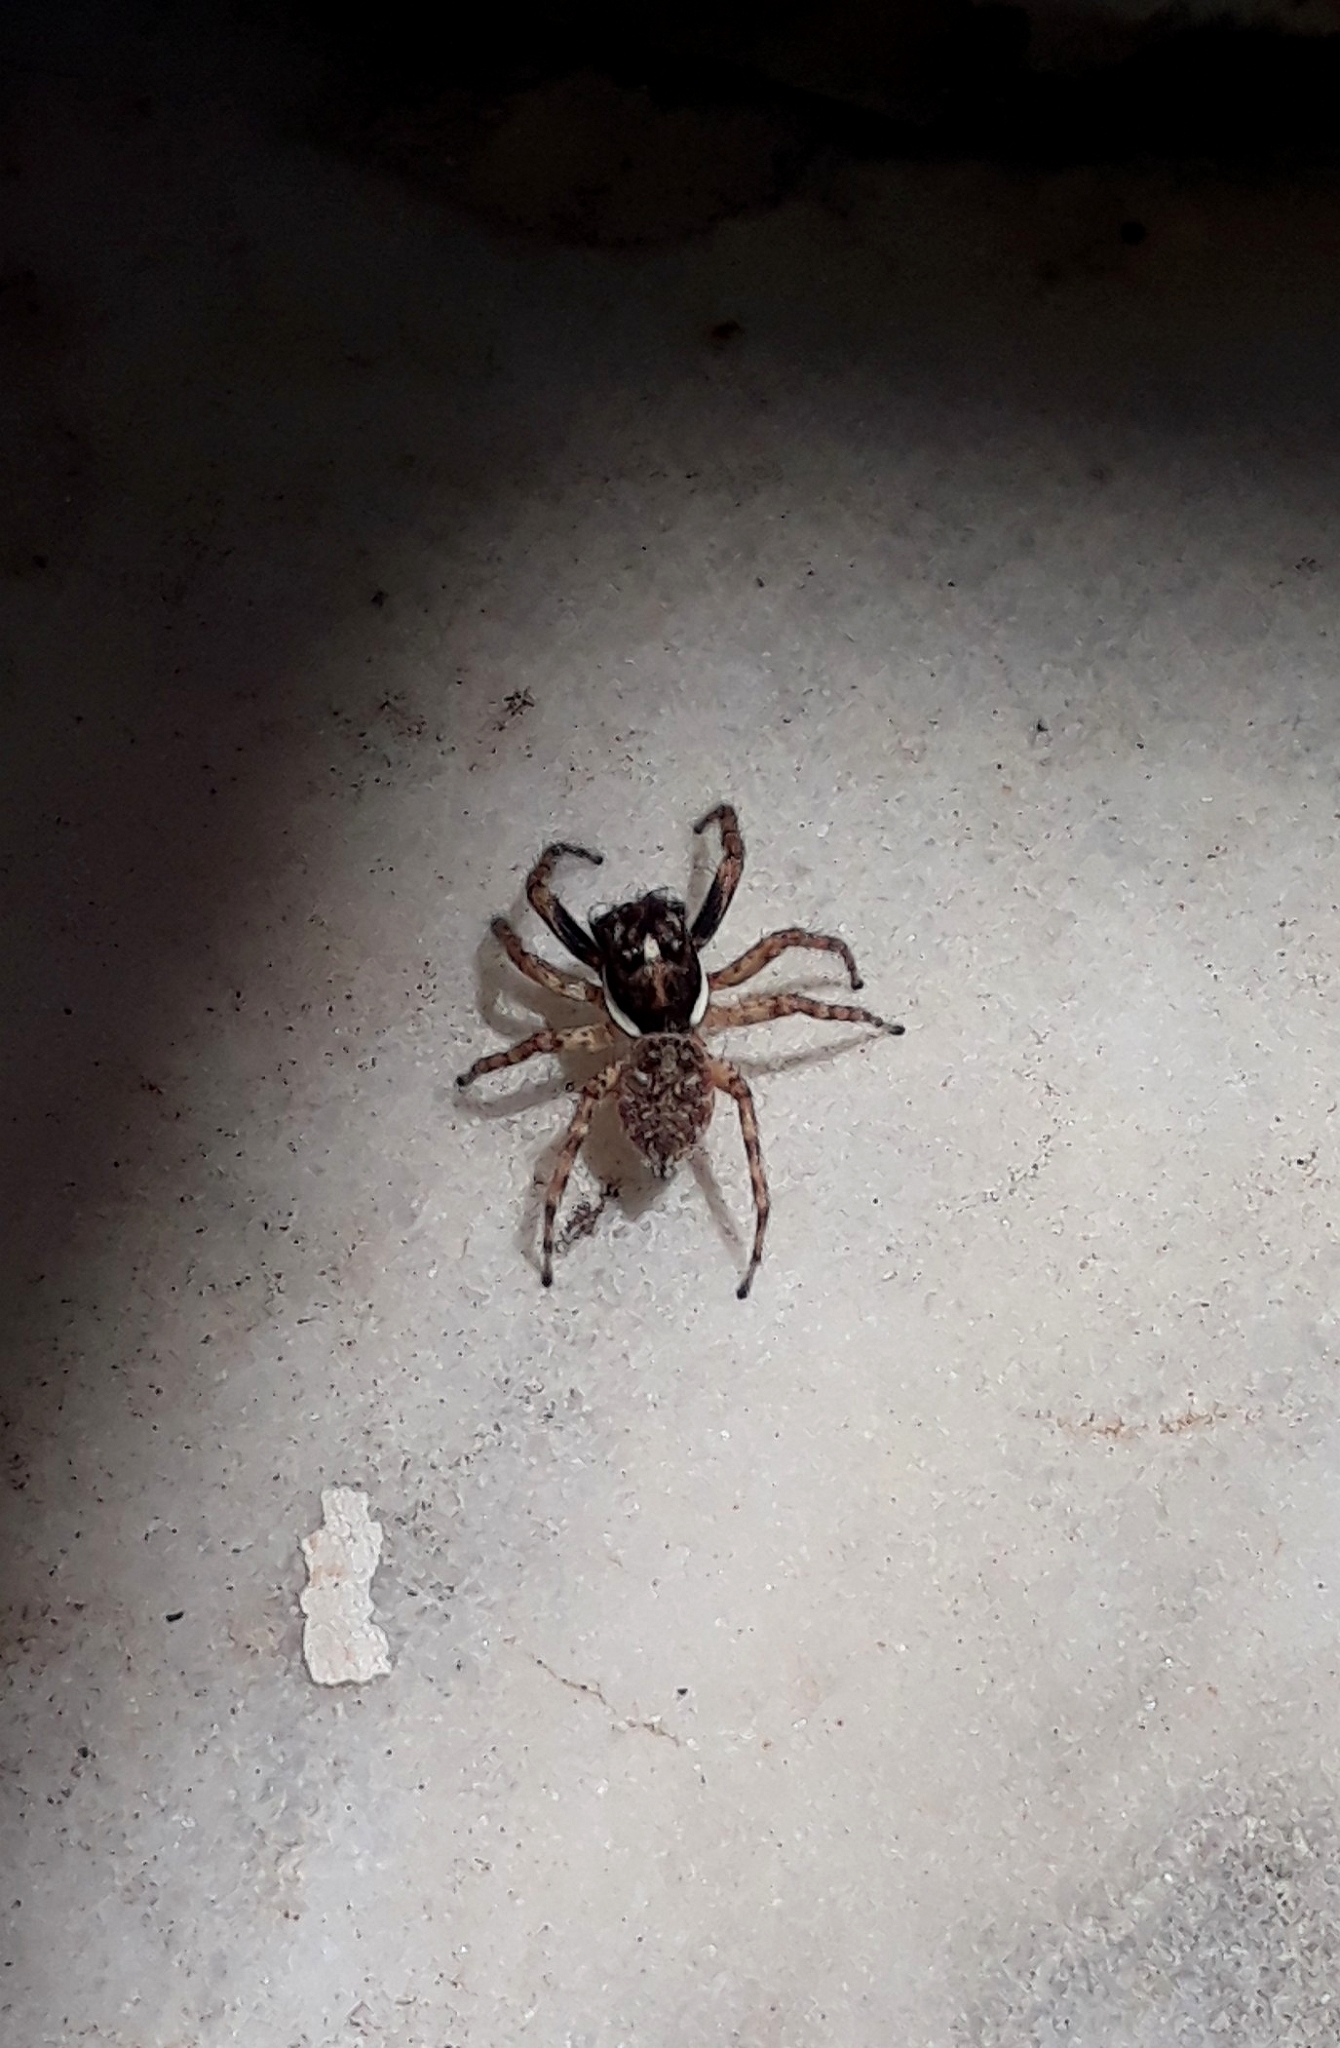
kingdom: Animalia
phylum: Arthropoda
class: Arachnida
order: Araneae
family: Salticidae
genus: Menemerus
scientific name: Menemerus semilimbatus
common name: Jumping spider
